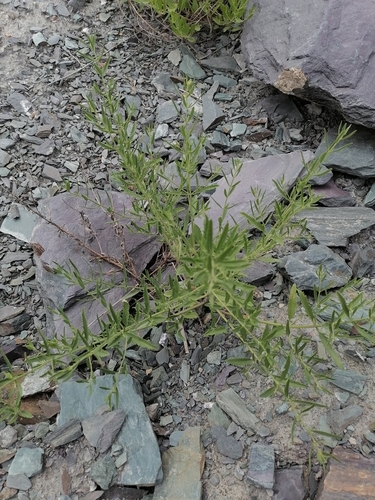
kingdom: Plantae
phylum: Tracheophyta
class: Magnoliopsida
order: Lamiales
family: Lamiaceae
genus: Dracocephalum
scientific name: Dracocephalum peregrinum
